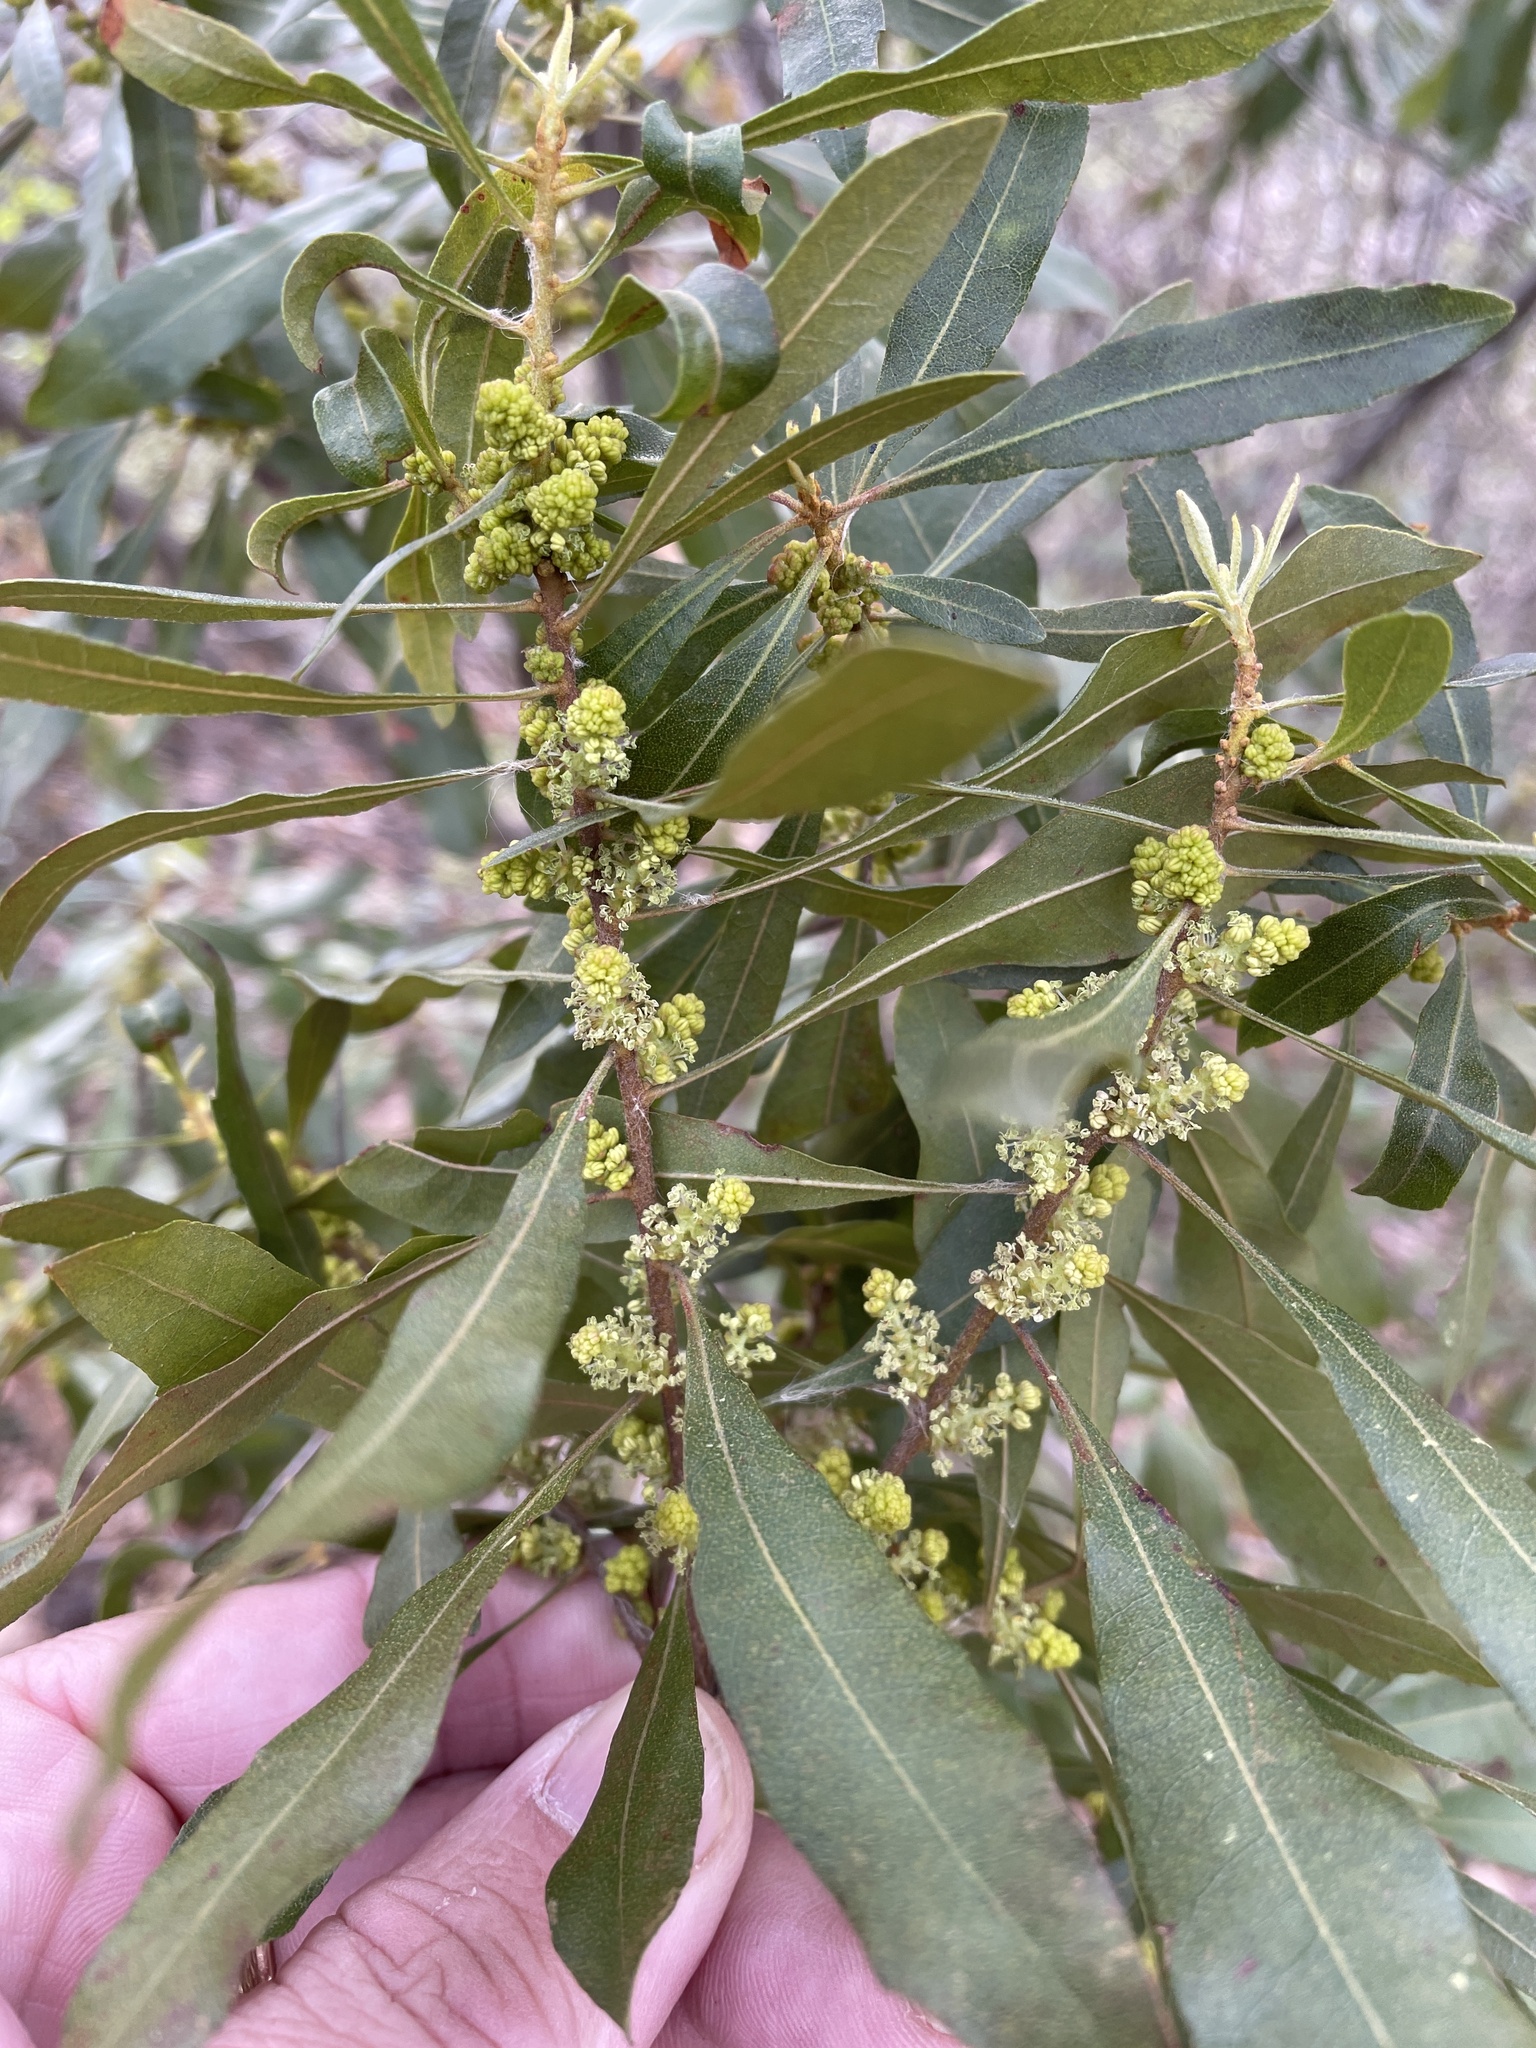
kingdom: Plantae
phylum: Tracheophyta
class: Magnoliopsida
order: Fagales
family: Myricaceae
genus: Morella
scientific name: Morella cerifera
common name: Wax myrtle
